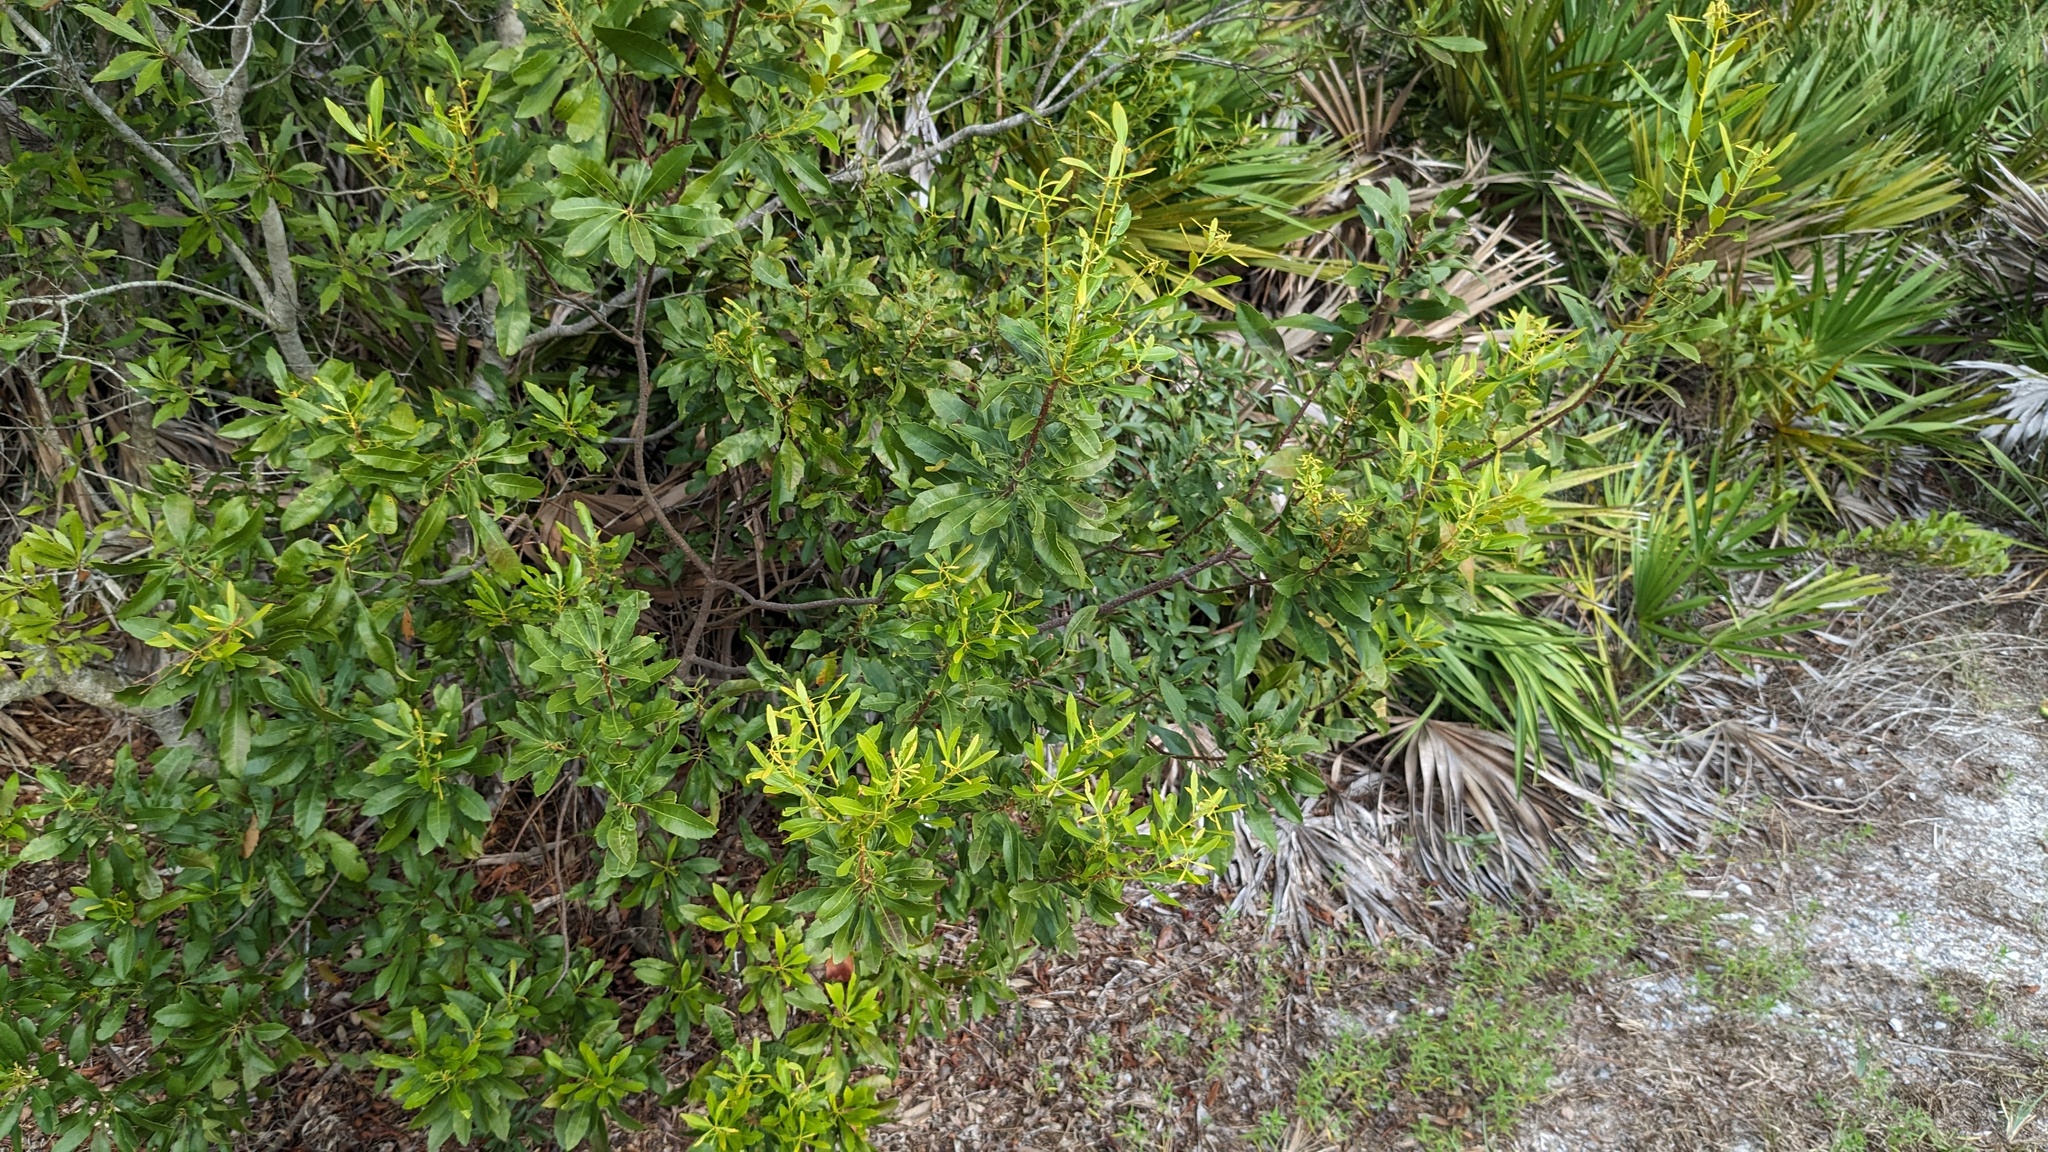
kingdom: Plantae
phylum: Tracheophyta
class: Magnoliopsida
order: Fagales
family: Myricaceae
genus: Morella
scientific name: Morella cerifera
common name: Wax myrtle
